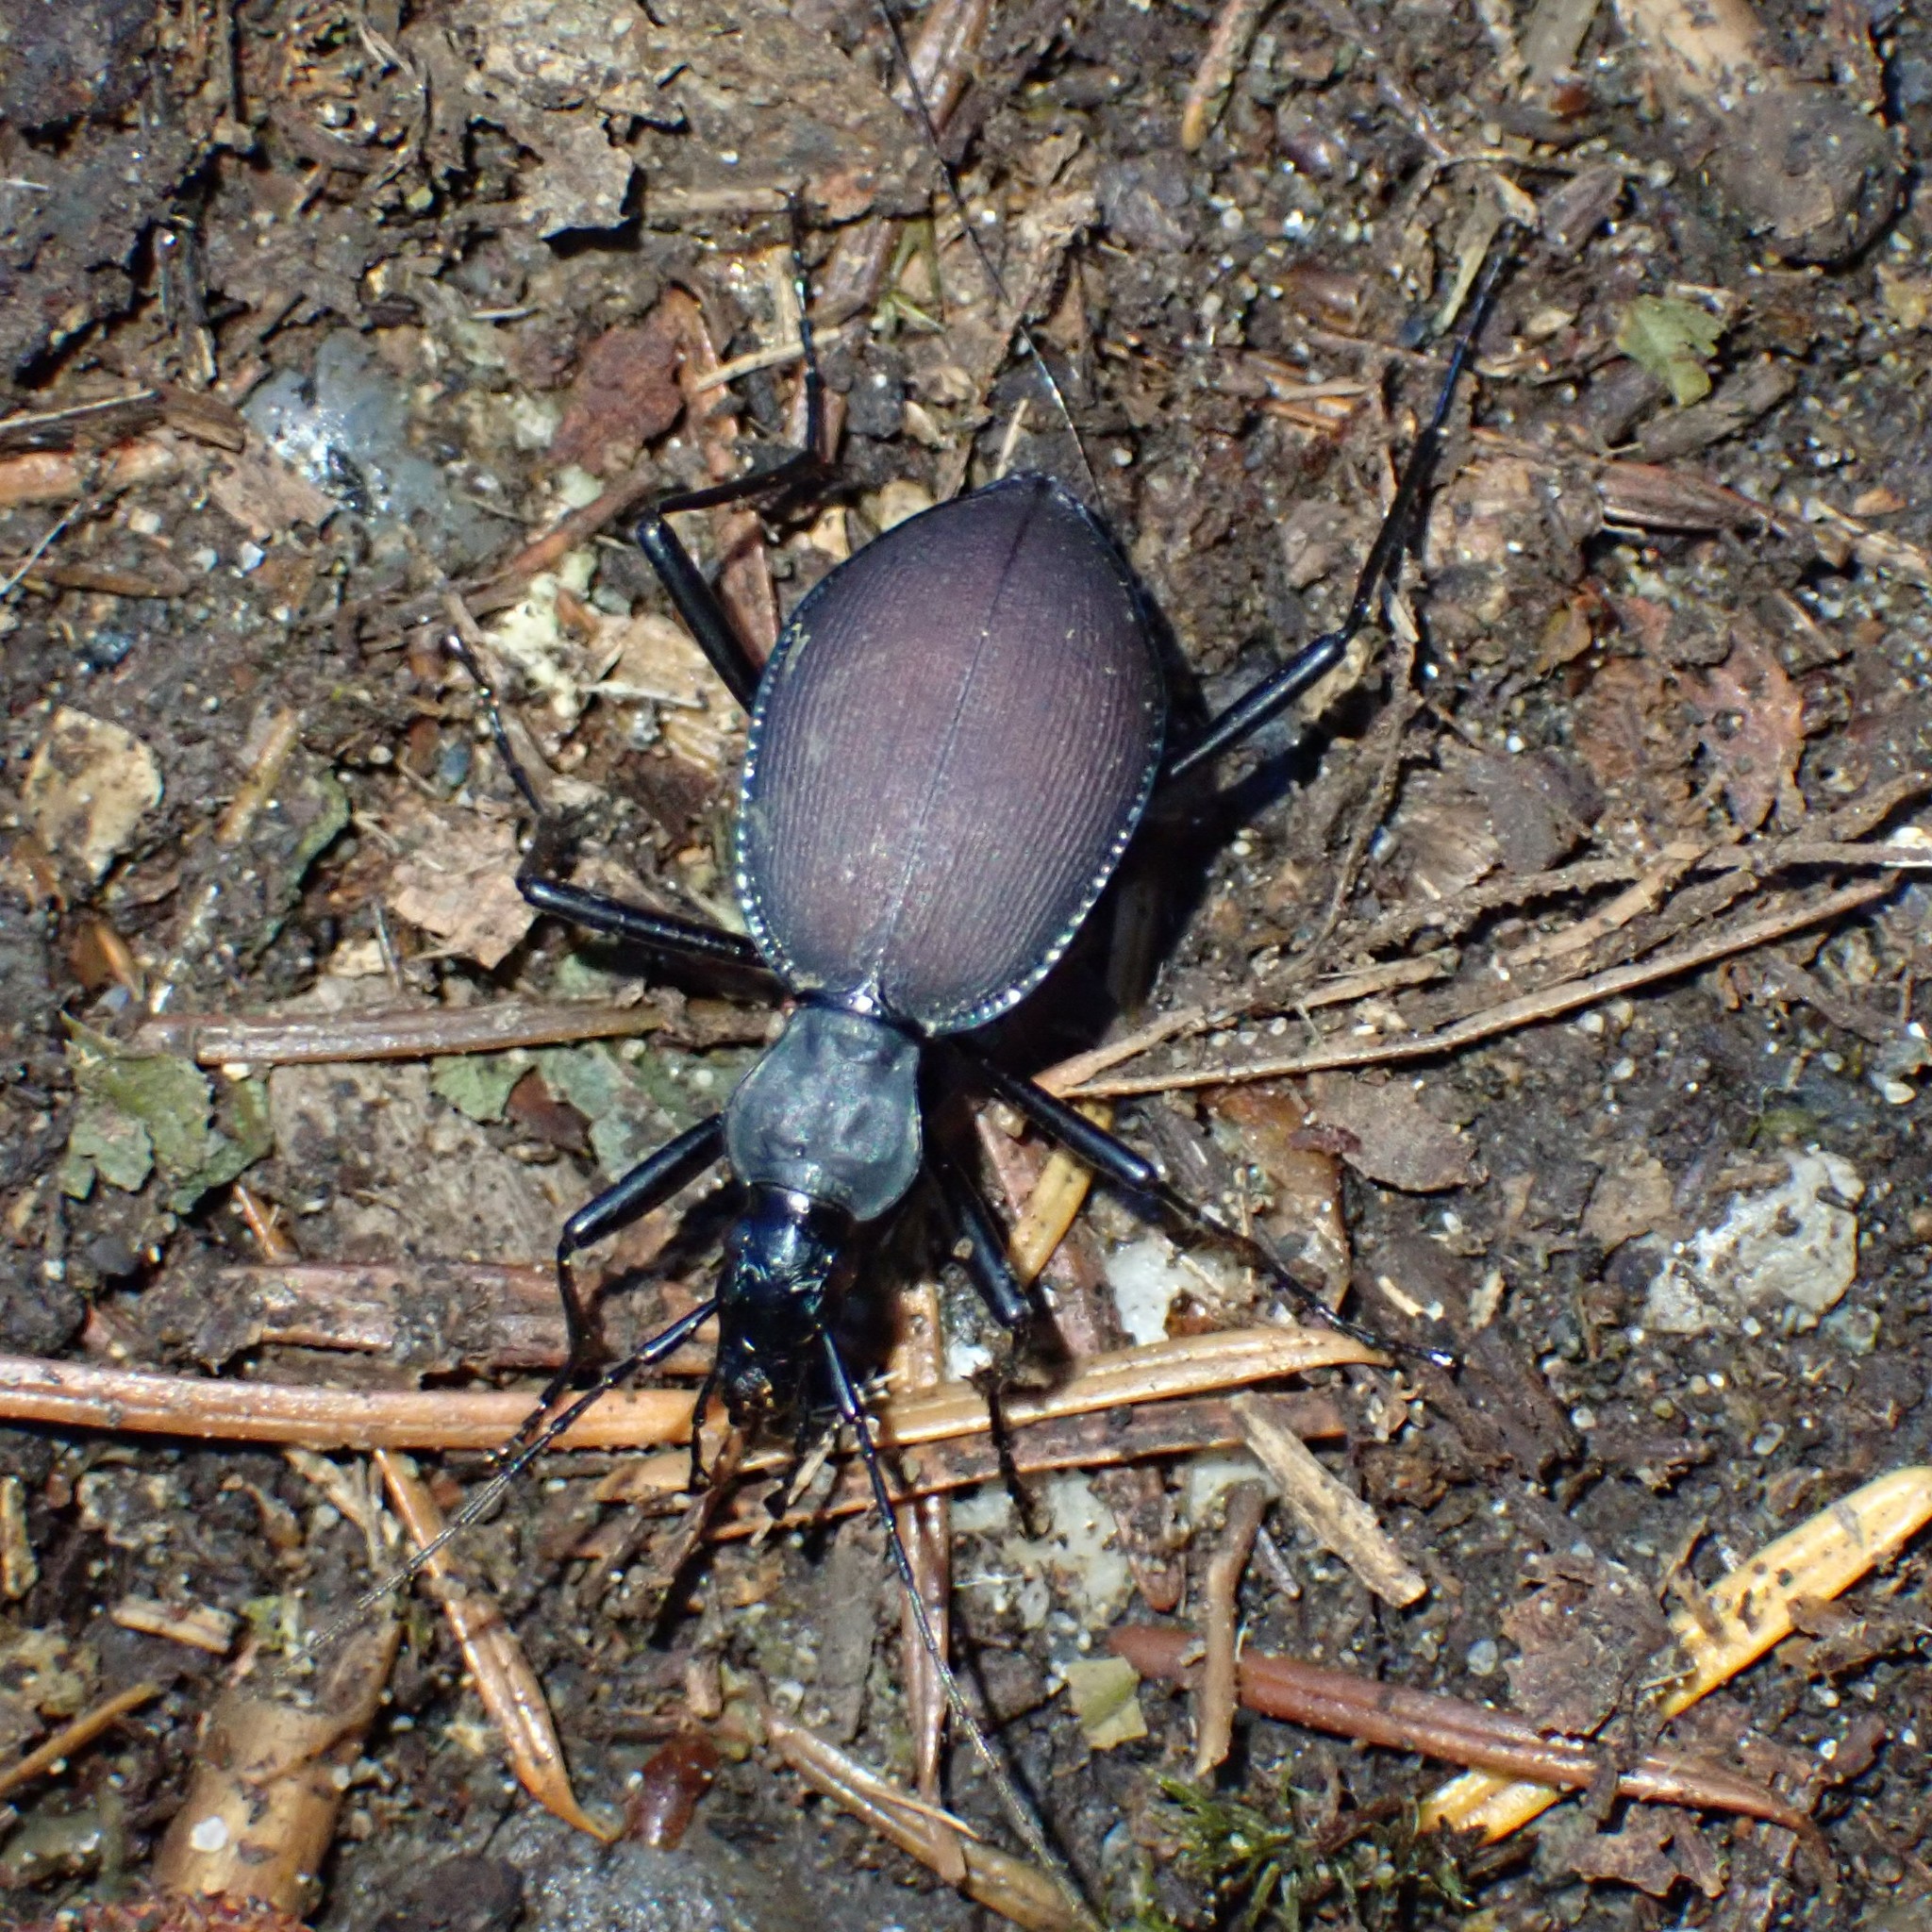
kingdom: Animalia
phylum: Arthropoda
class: Insecta
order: Coleoptera
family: Carabidae
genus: Scaphinotus
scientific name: Scaphinotus angusticollis
